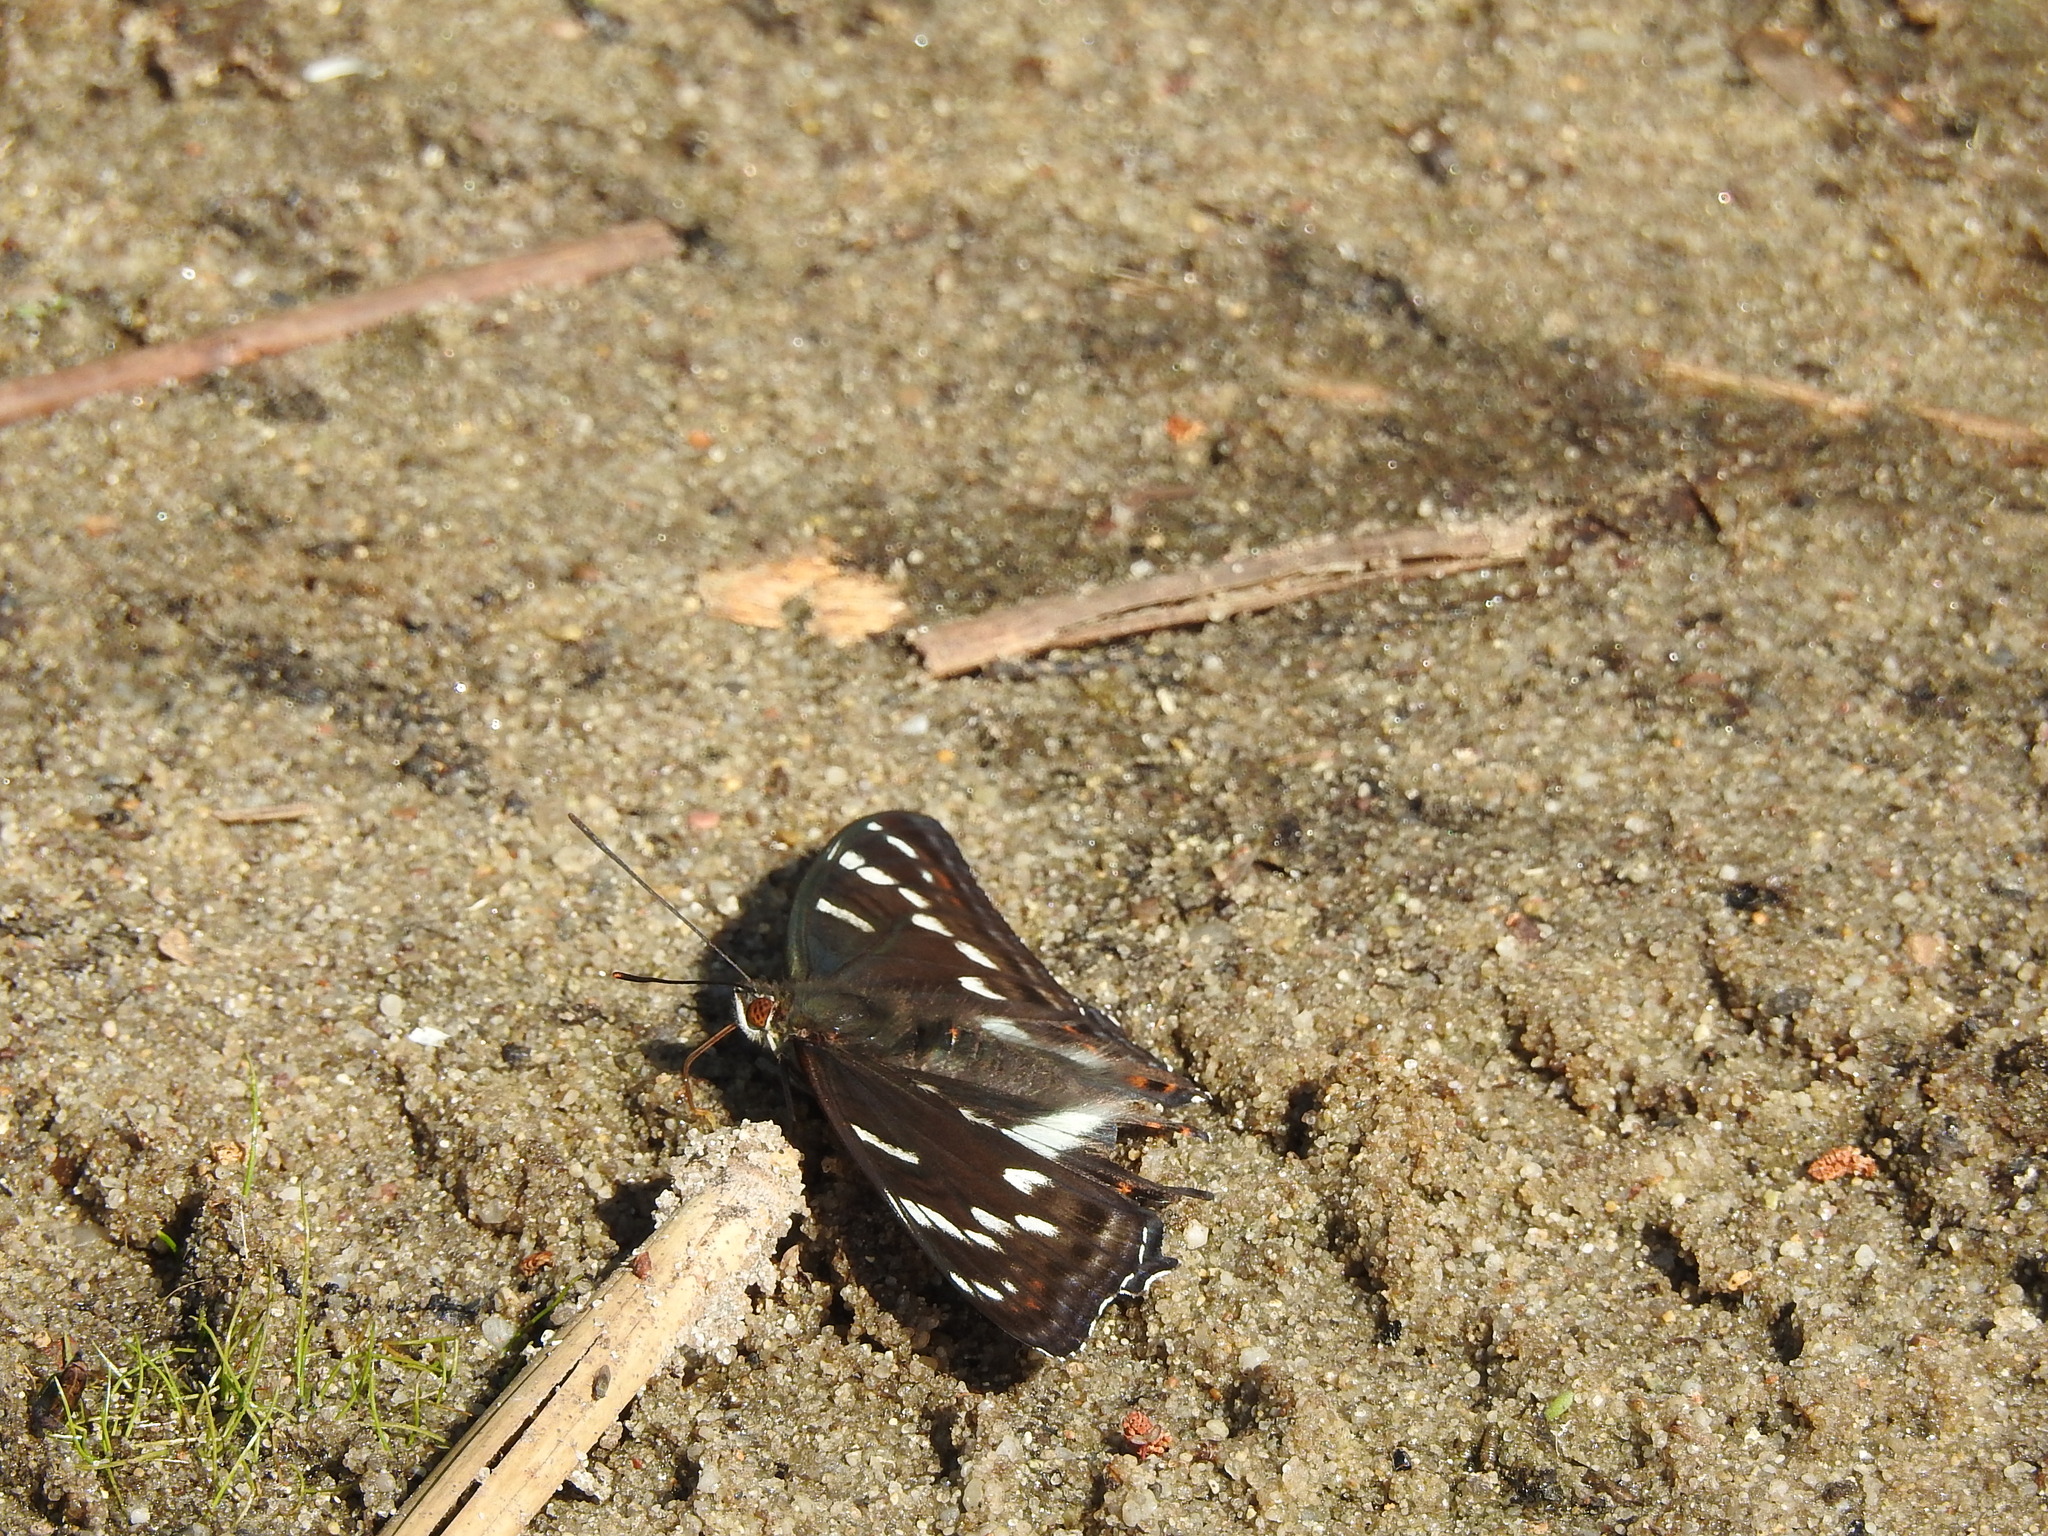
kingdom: Animalia
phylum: Arthropoda
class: Insecta
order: Lepidoptera
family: Nymphalidae
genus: Limenitis
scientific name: Limenitis populi
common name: Poplar admiral
